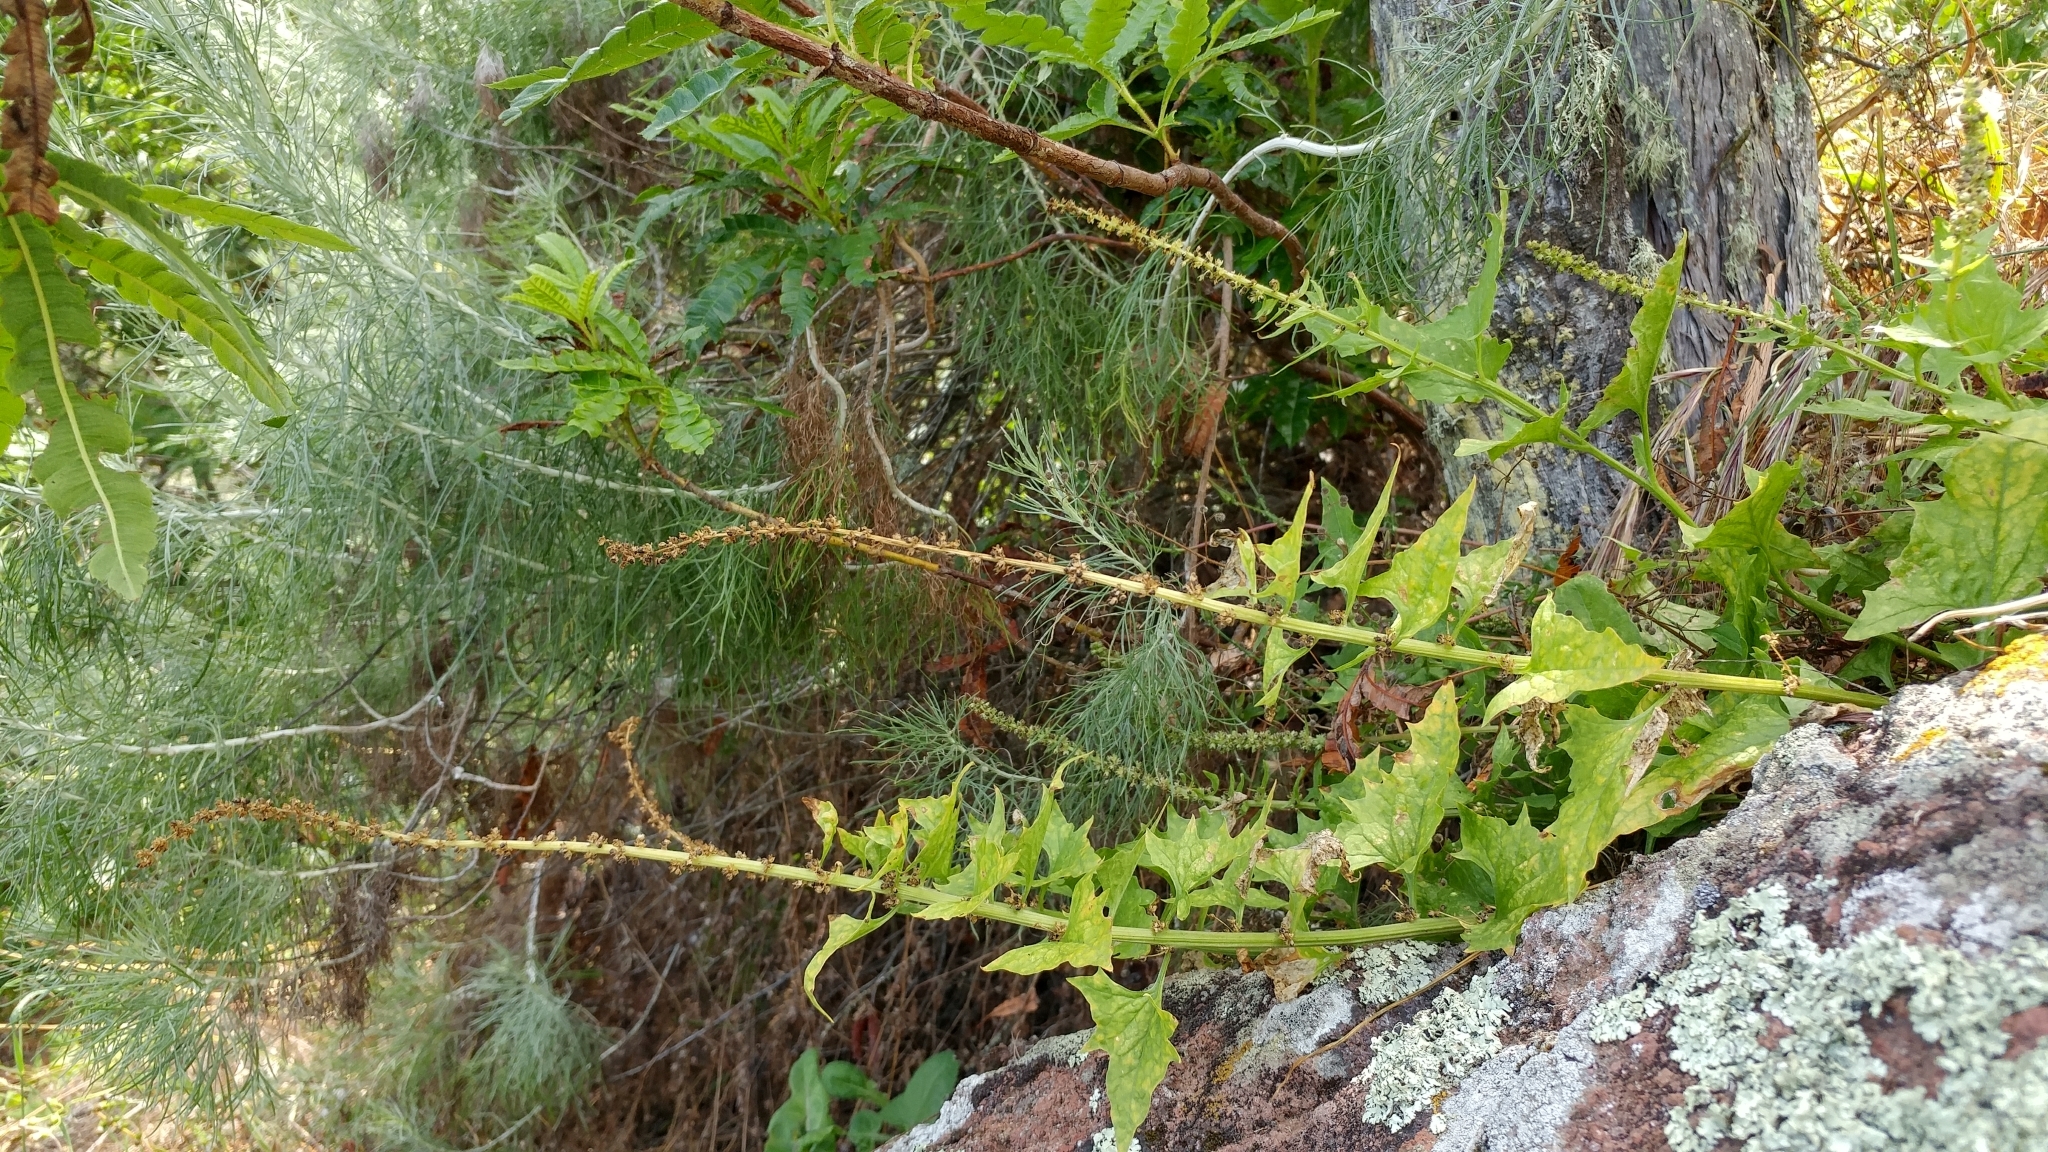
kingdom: Plantae
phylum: Tracheophyta
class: Magnoliopsida
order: Caryophyllales
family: Amaranthaceae
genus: Blitum
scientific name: Blitum californicum
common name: California goosefoot
